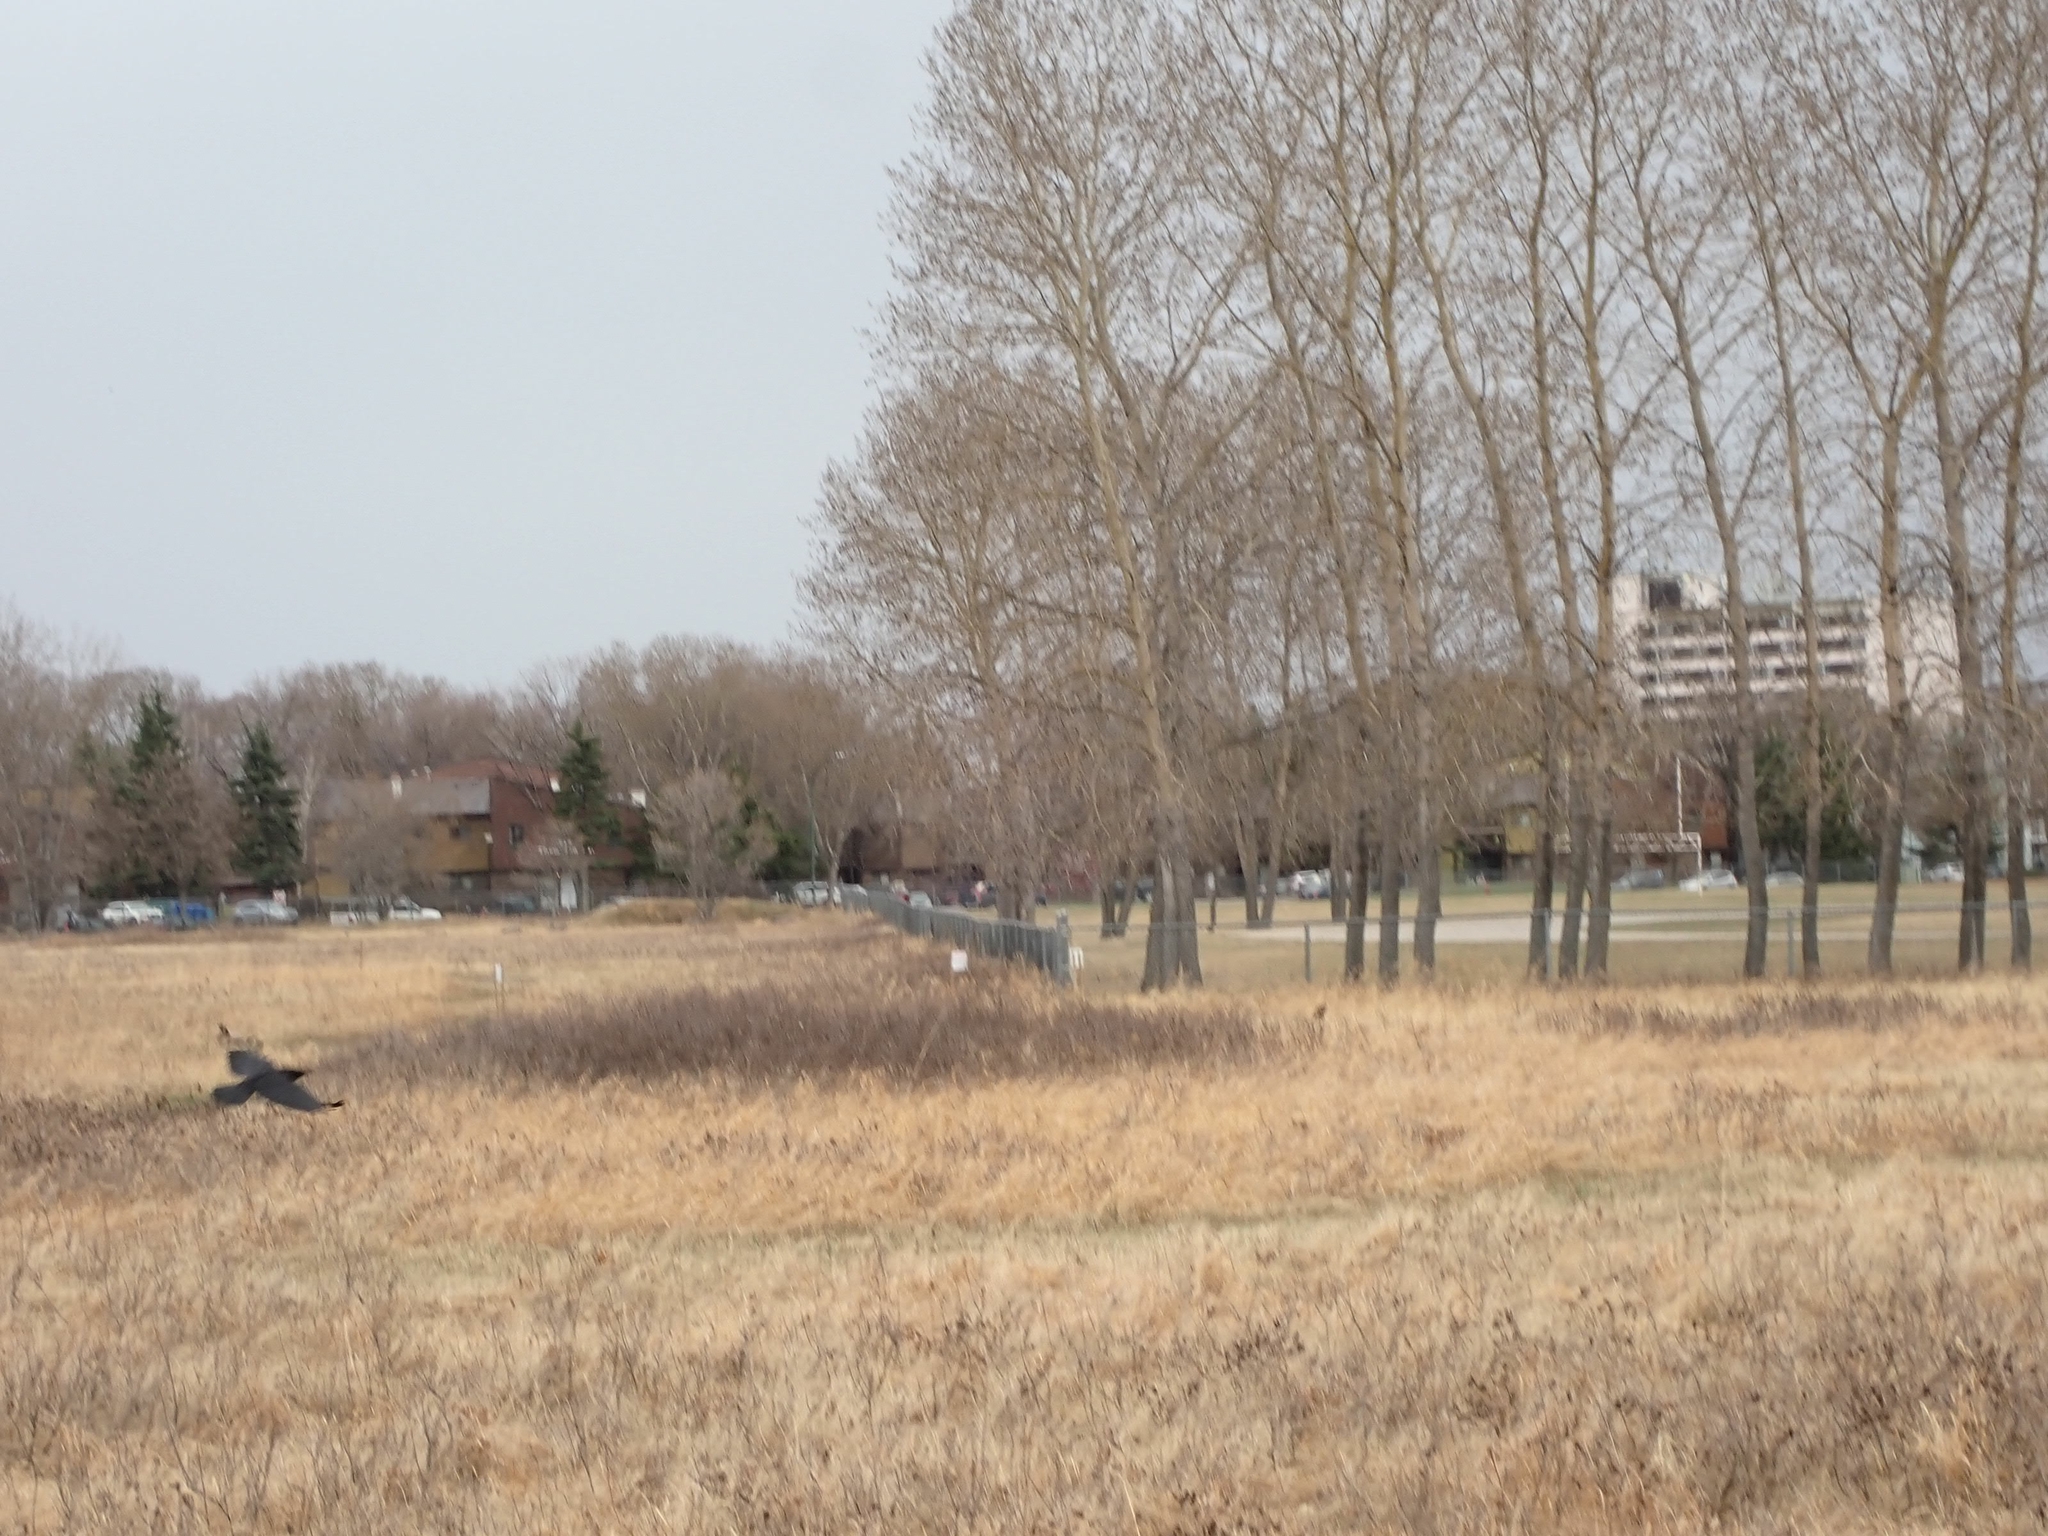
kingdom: Animalia
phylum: Chordata
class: Aves
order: Passeriformes
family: Corvidae
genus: Corvus
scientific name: Corvus brachyrhynchos
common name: American crow
